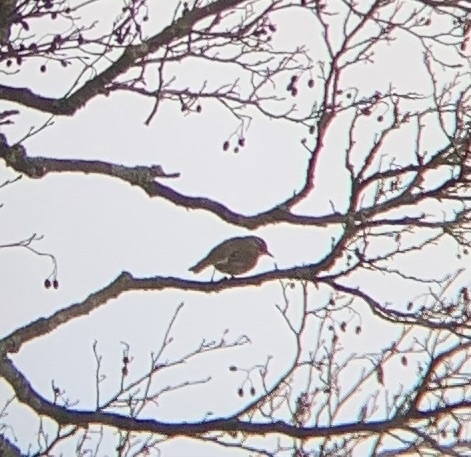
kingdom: Animalia
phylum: Chordata
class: Aves
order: Passeriformes
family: Turdidae
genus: Turdus
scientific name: Turdus iliacus
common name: Redwing
